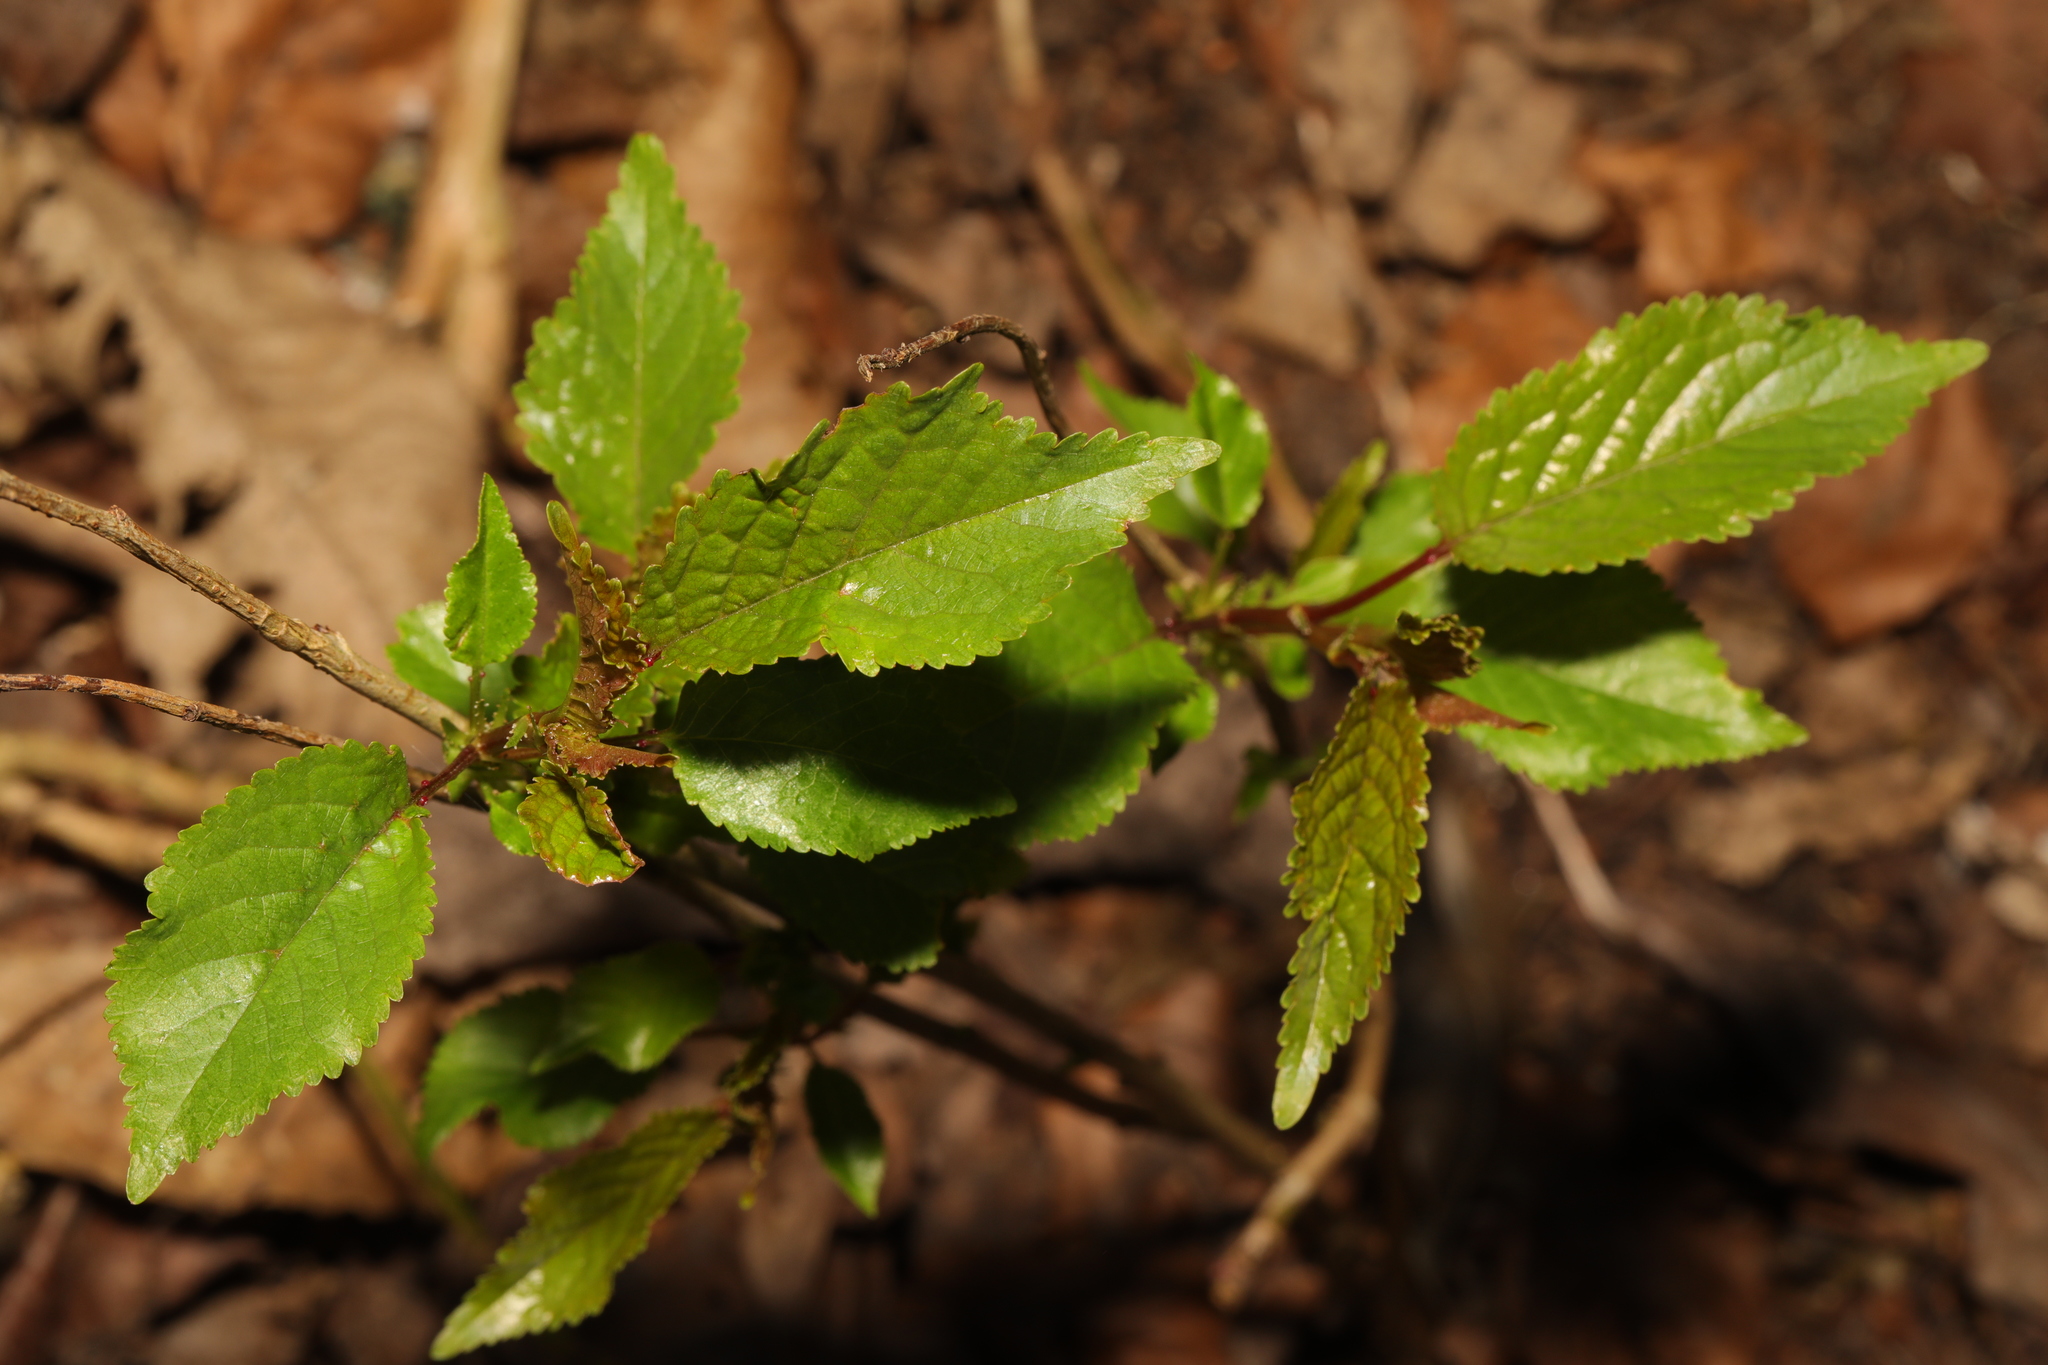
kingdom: Plantae
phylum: Tracheophyta
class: Magnoliopsida
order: Rosales
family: Rosaceae
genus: Prunus
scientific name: Prunus avium
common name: Sweet cherry
